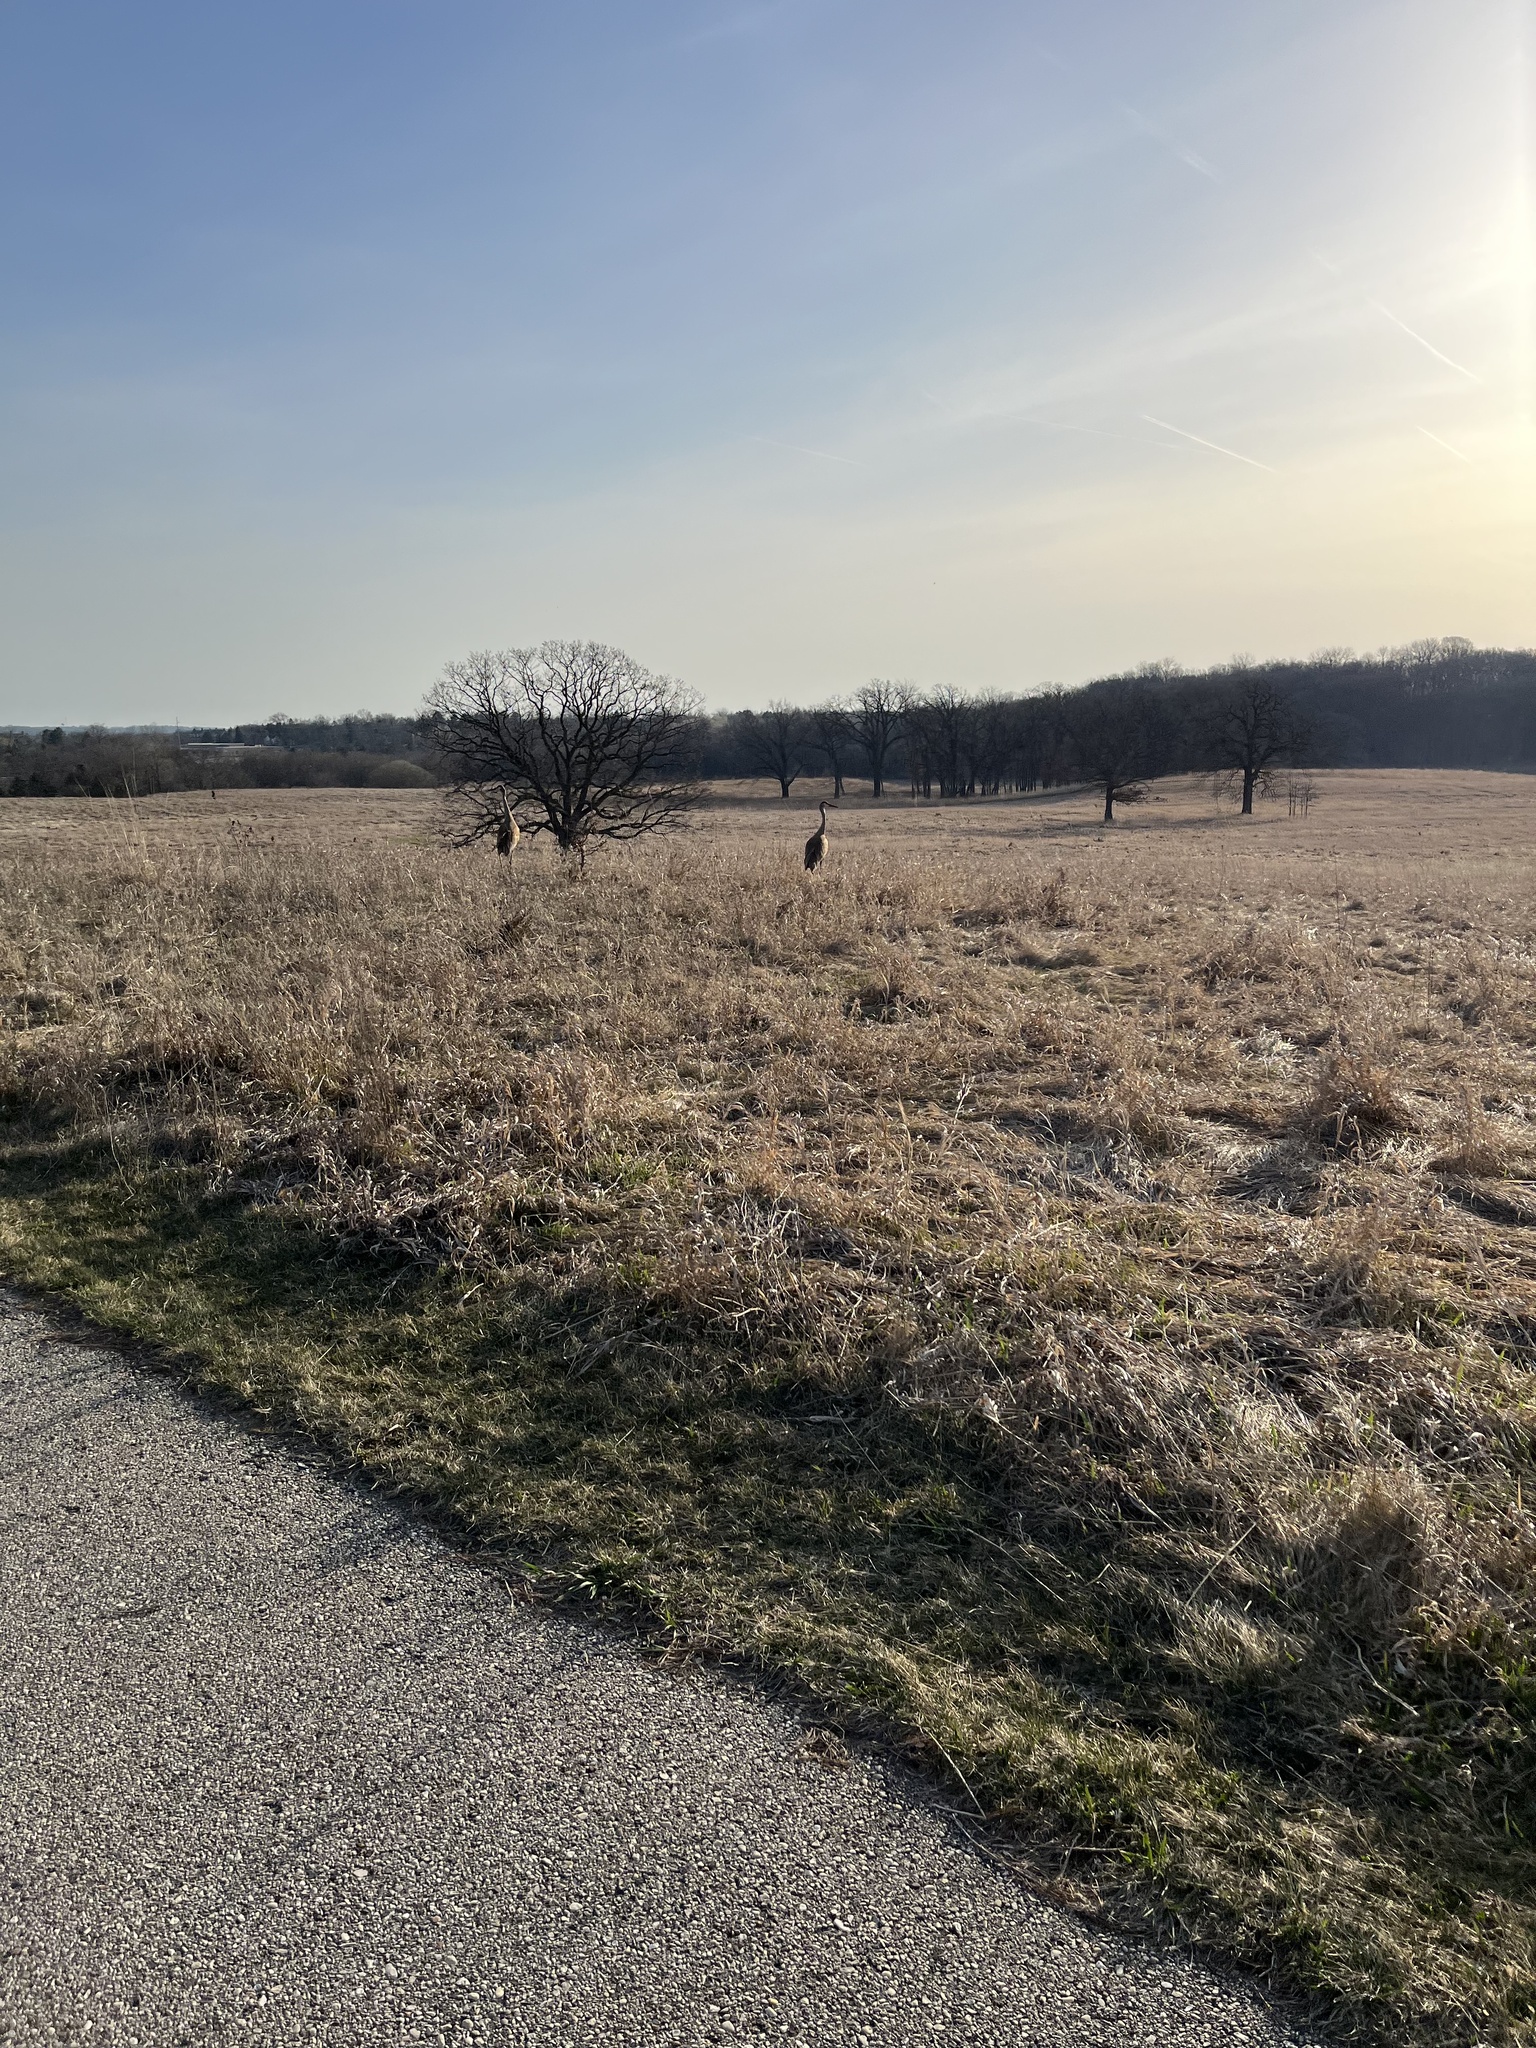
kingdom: Animalia
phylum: Chordata
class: Aves
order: Gruiformes
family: Gruidae
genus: Grus
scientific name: Grus canadensis
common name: Sandhill crane
